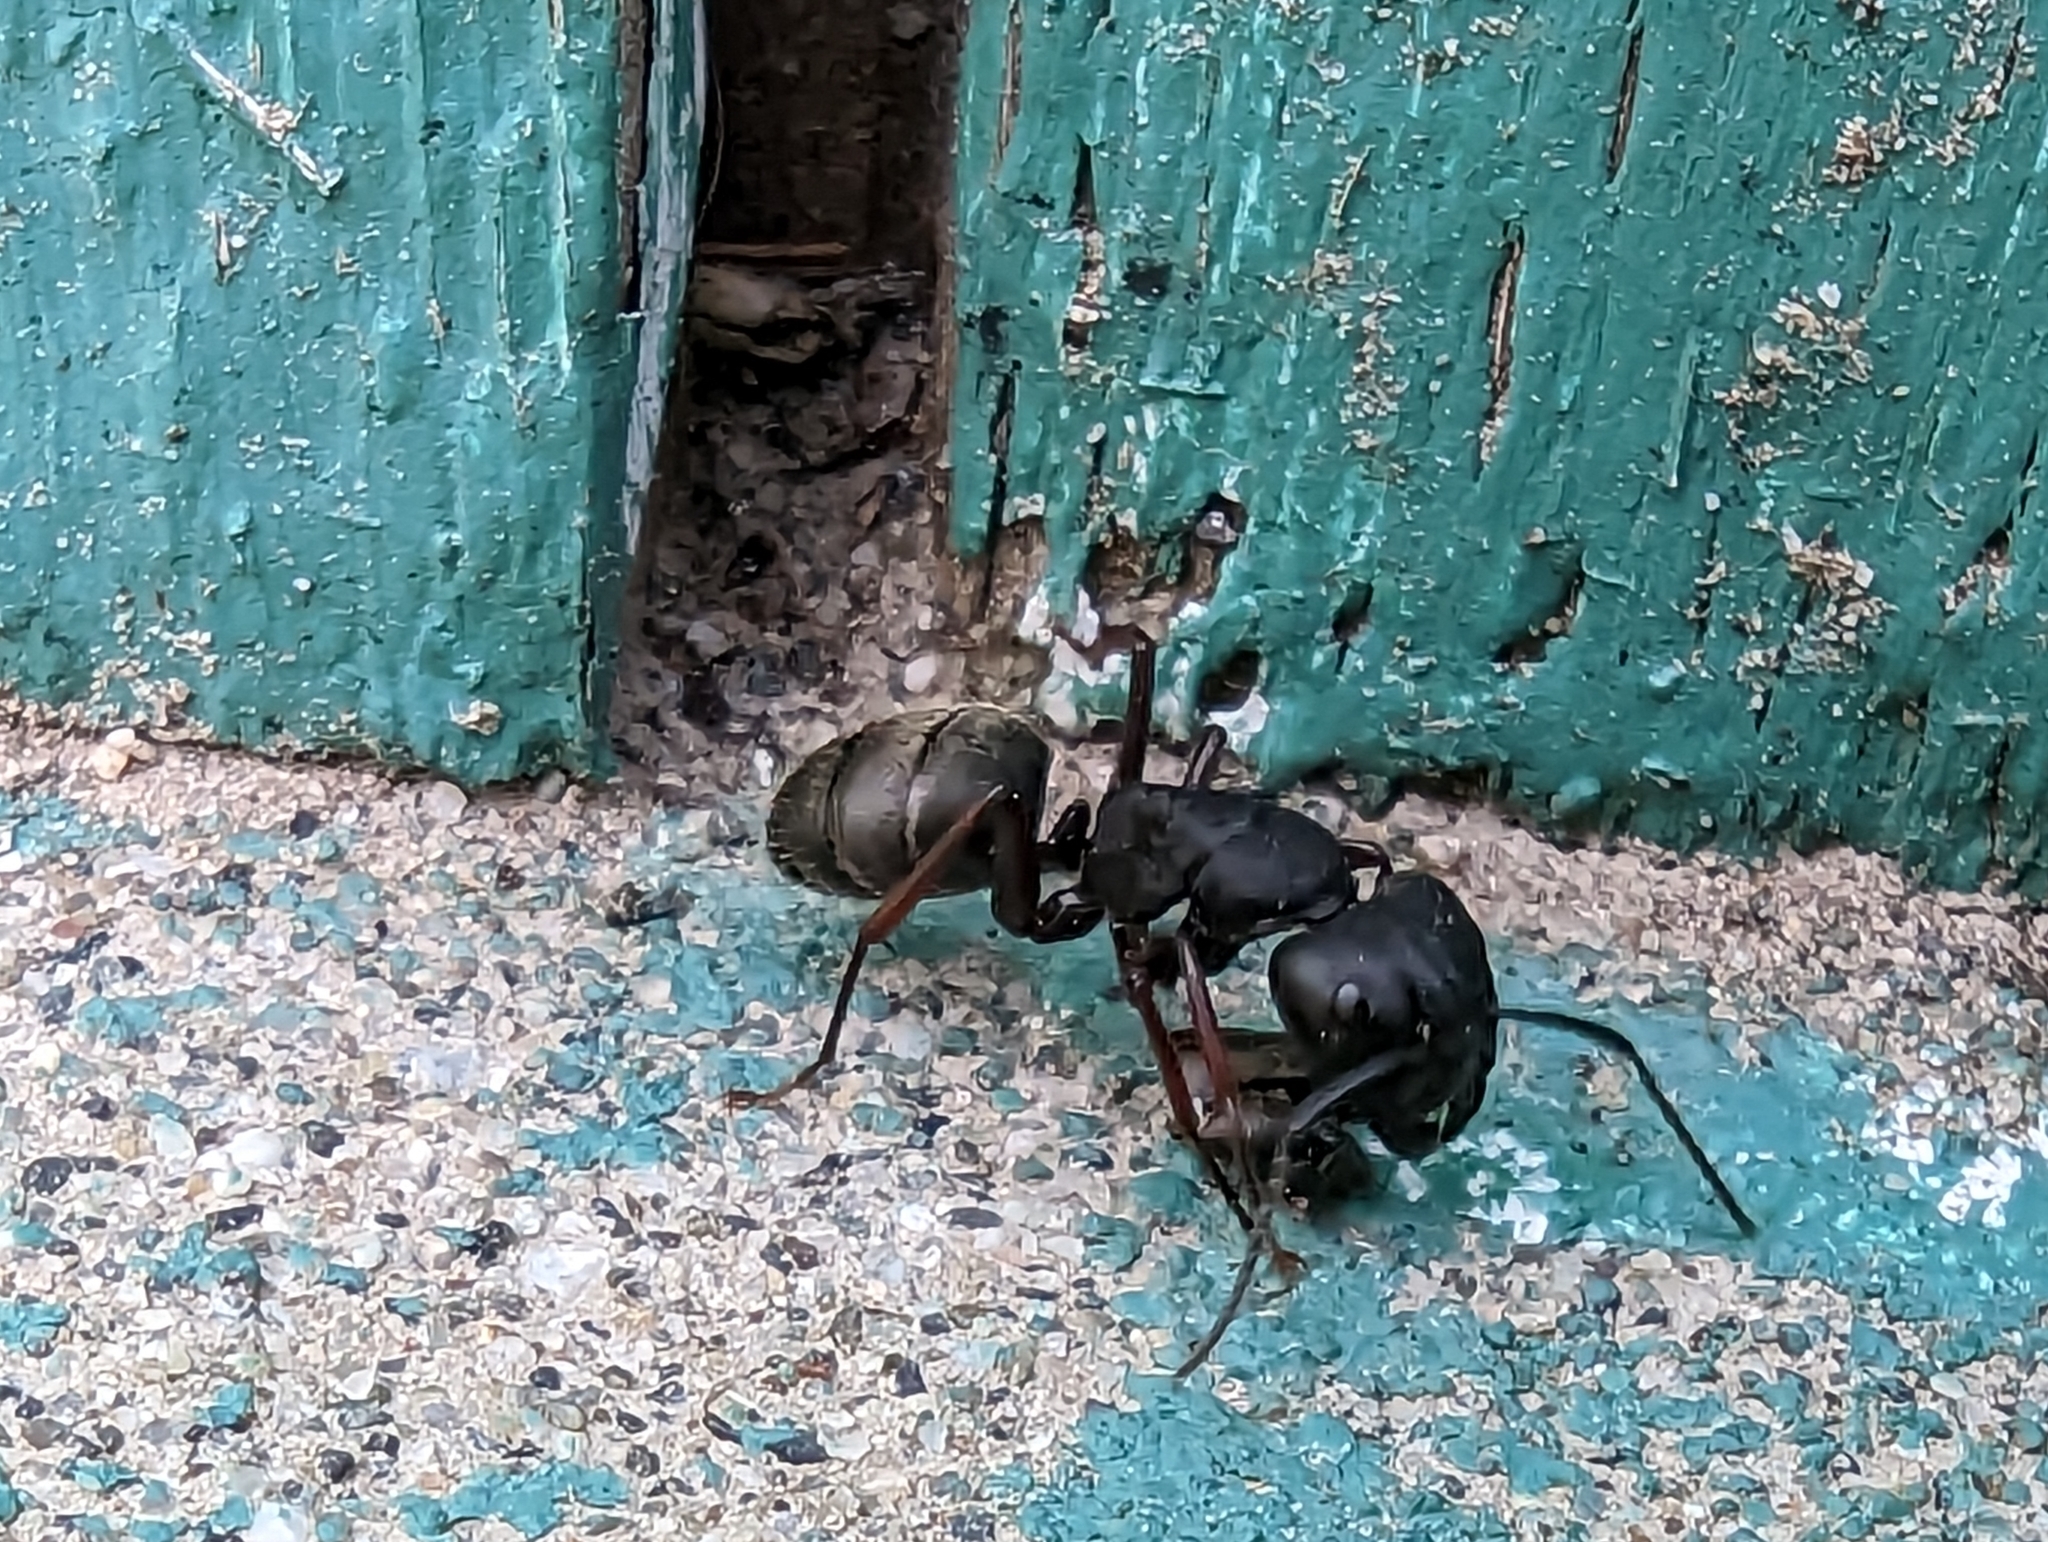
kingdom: Animalia
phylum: Arthropoda
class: Insecta
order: Hymenoptera
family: Formicidae
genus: Camponotus
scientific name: Camponotus modoc
